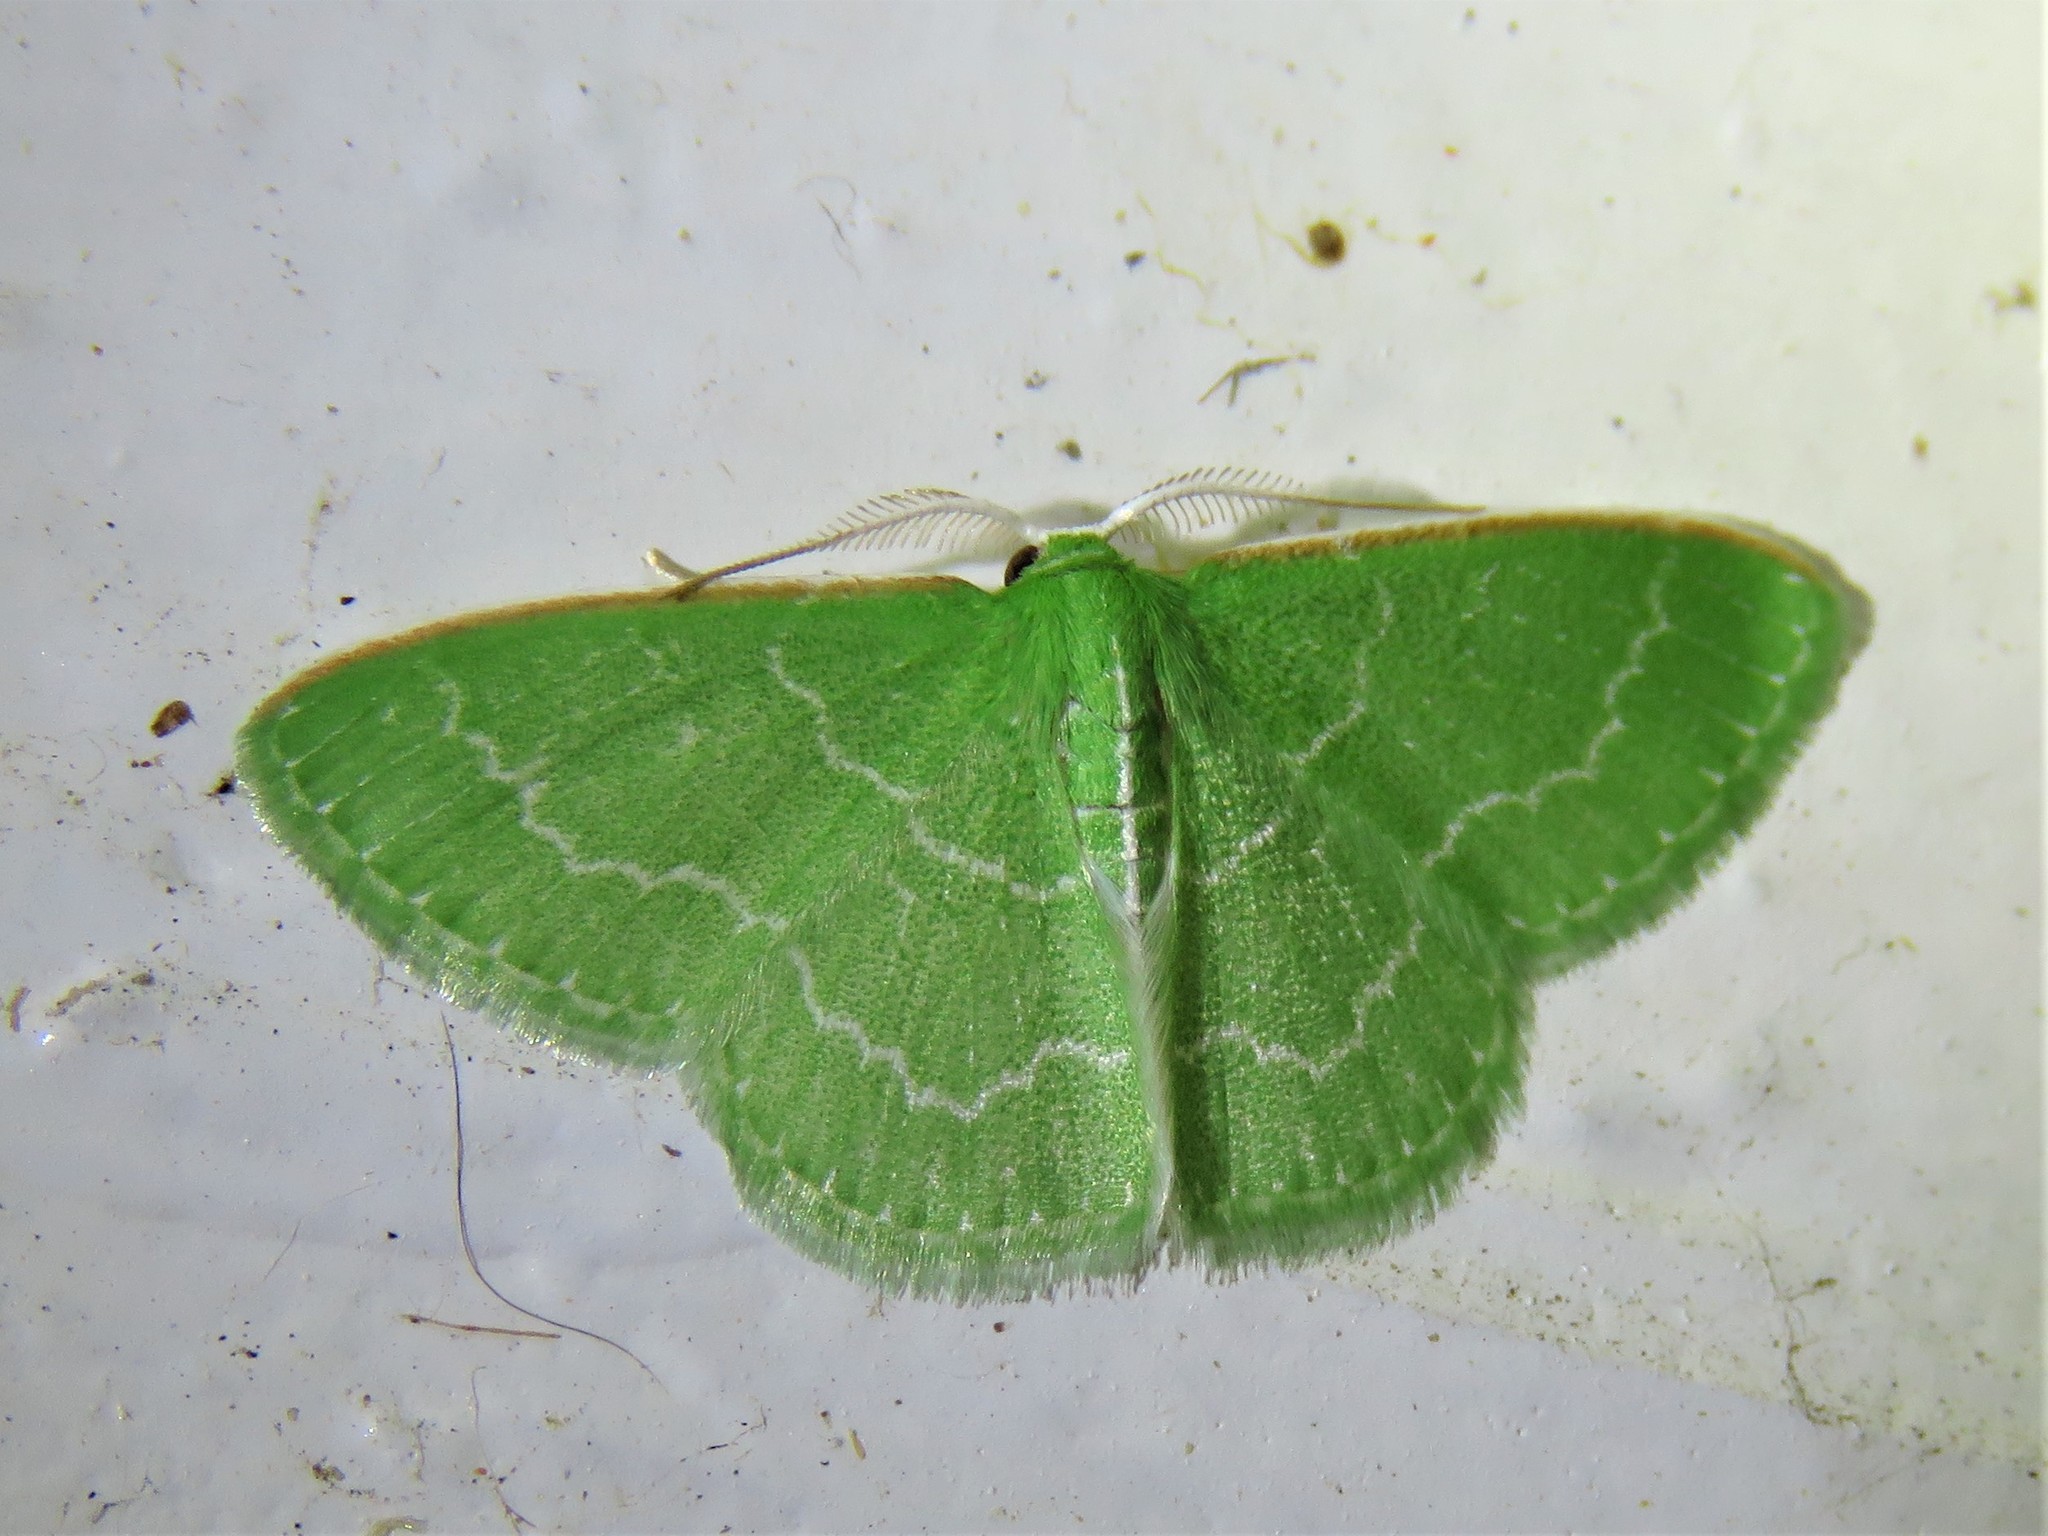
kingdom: Animalia
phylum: Arthropoda
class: Insecta
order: Lepidoptera
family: Geometridae
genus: Synchlora
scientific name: Synchlora frondaria
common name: Southern emerald
